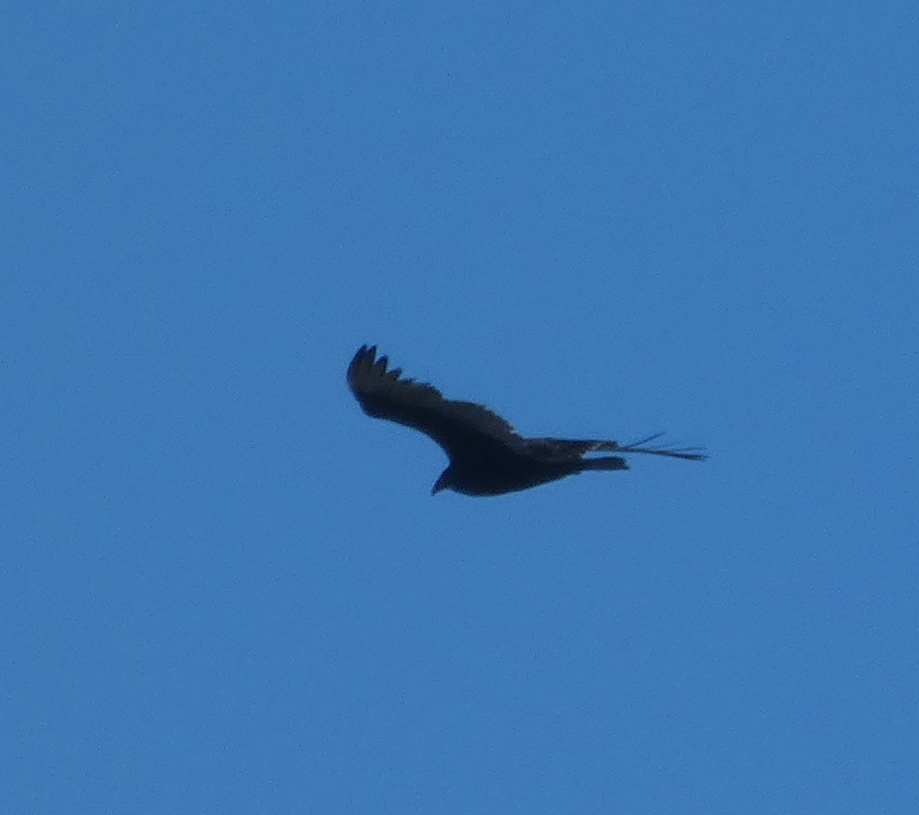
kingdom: Animalia
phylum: Chordata
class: Aves
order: Accipitriformes
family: Cathartidae
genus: Cathartes
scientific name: Cathartes aura
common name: Turkey vulture
